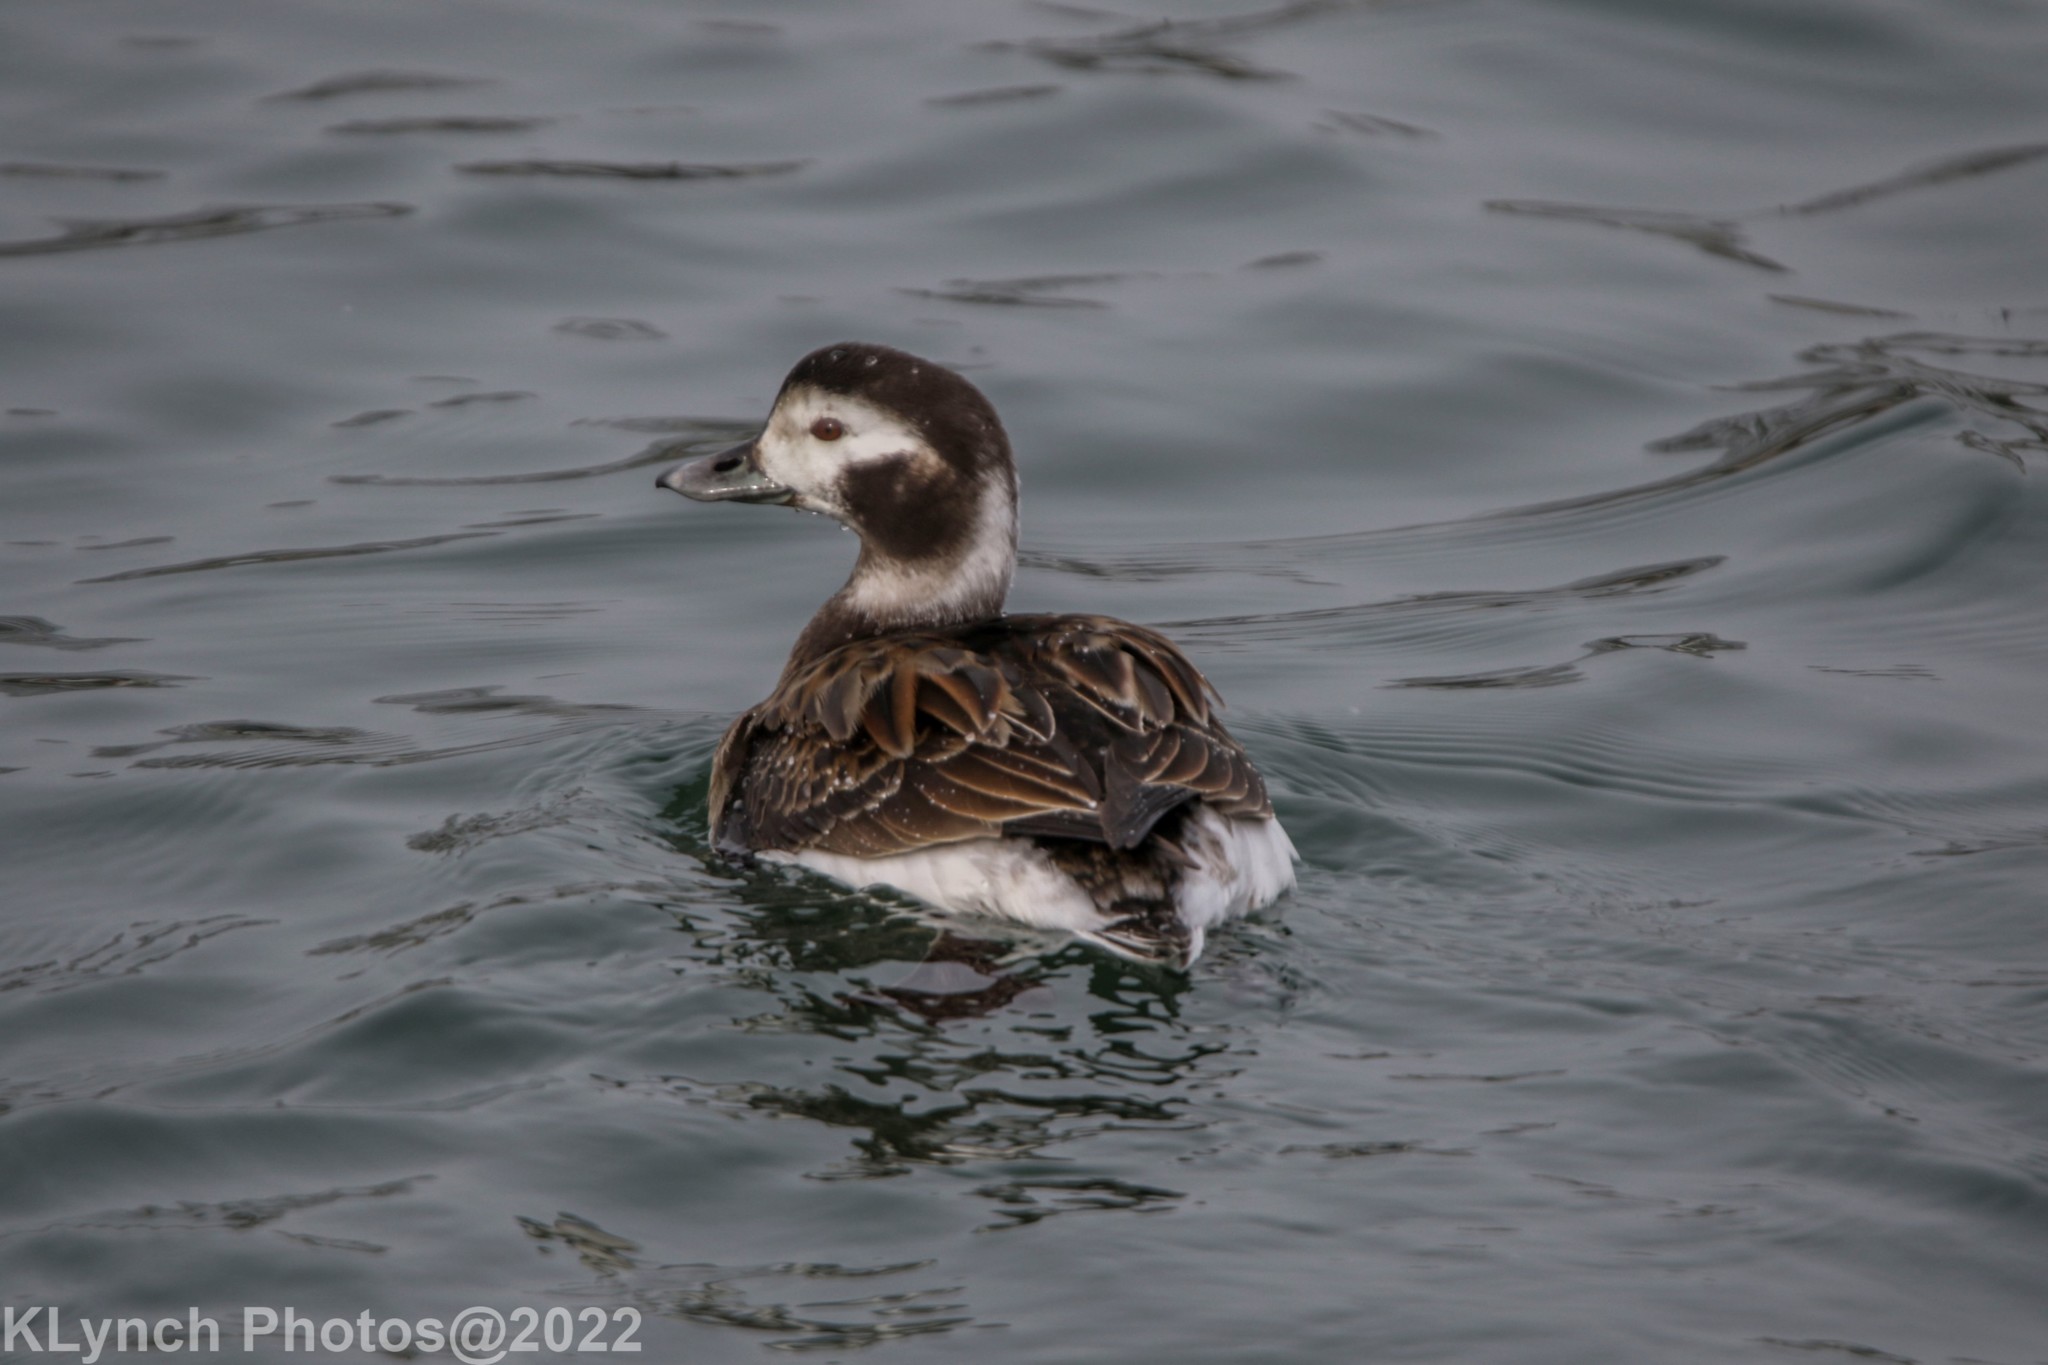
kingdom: Animalia
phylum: Chordata
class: Aves
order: Anseriformes
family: Anatidae
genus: Clangula
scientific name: Clangula hyemalis
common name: Long-tailed duck
